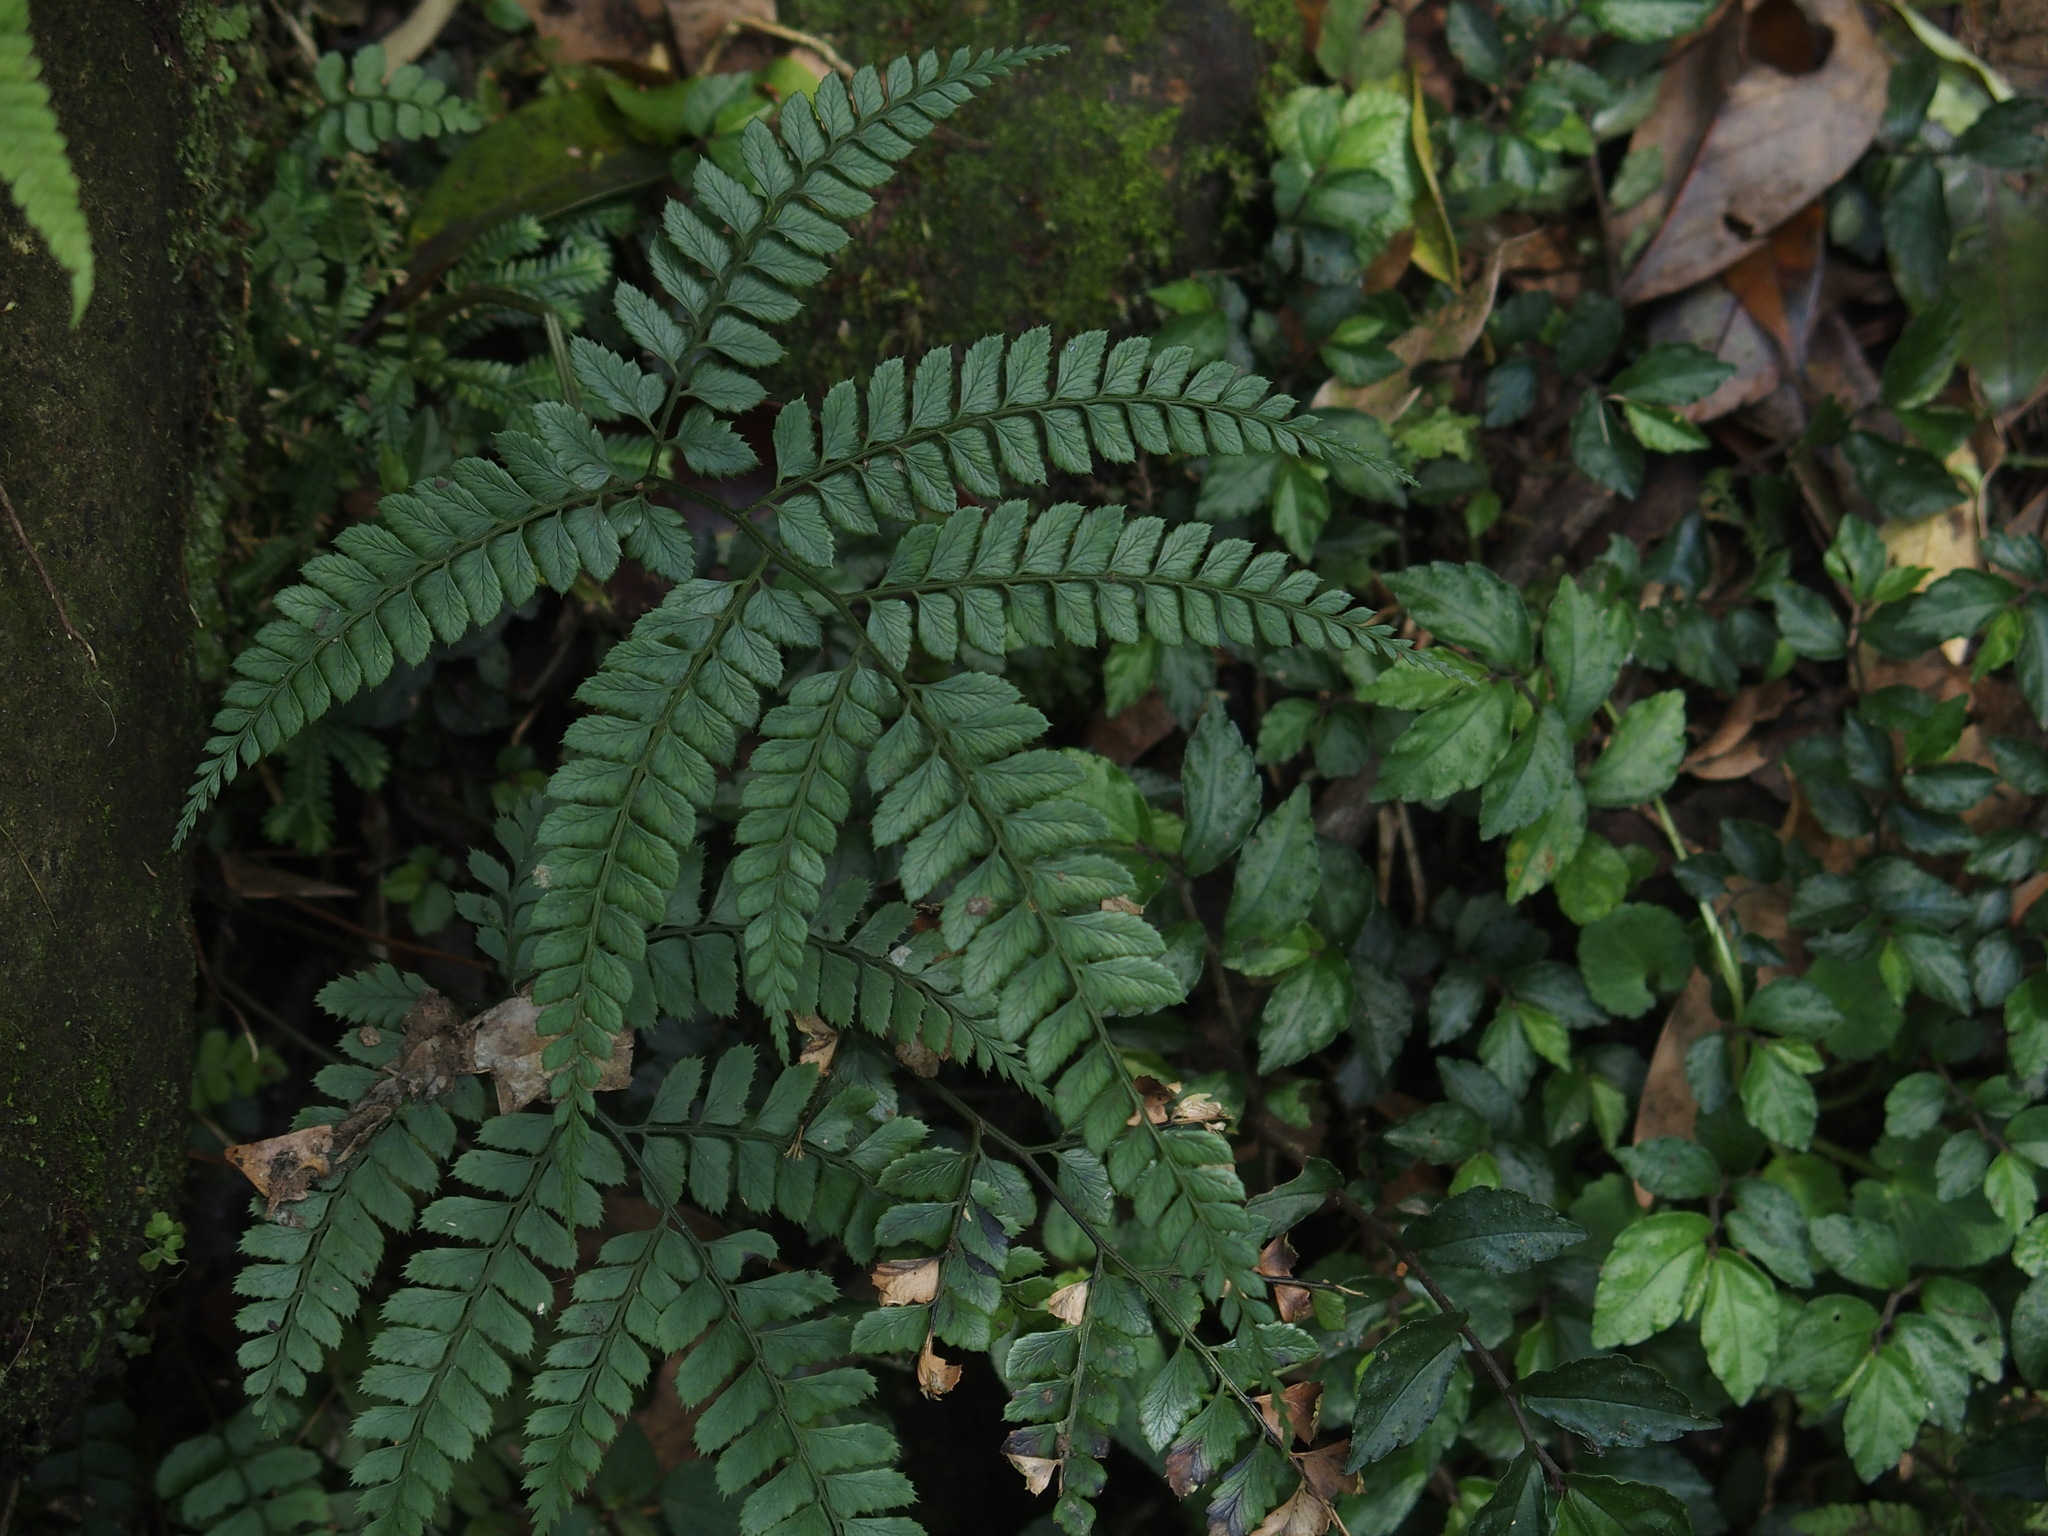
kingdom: Plantae
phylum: Tracheophyta
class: Polypodiopsida
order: Polypodiales
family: Dryopteridaceae
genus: Arachniodes
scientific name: Arachniodes rhomboidea
